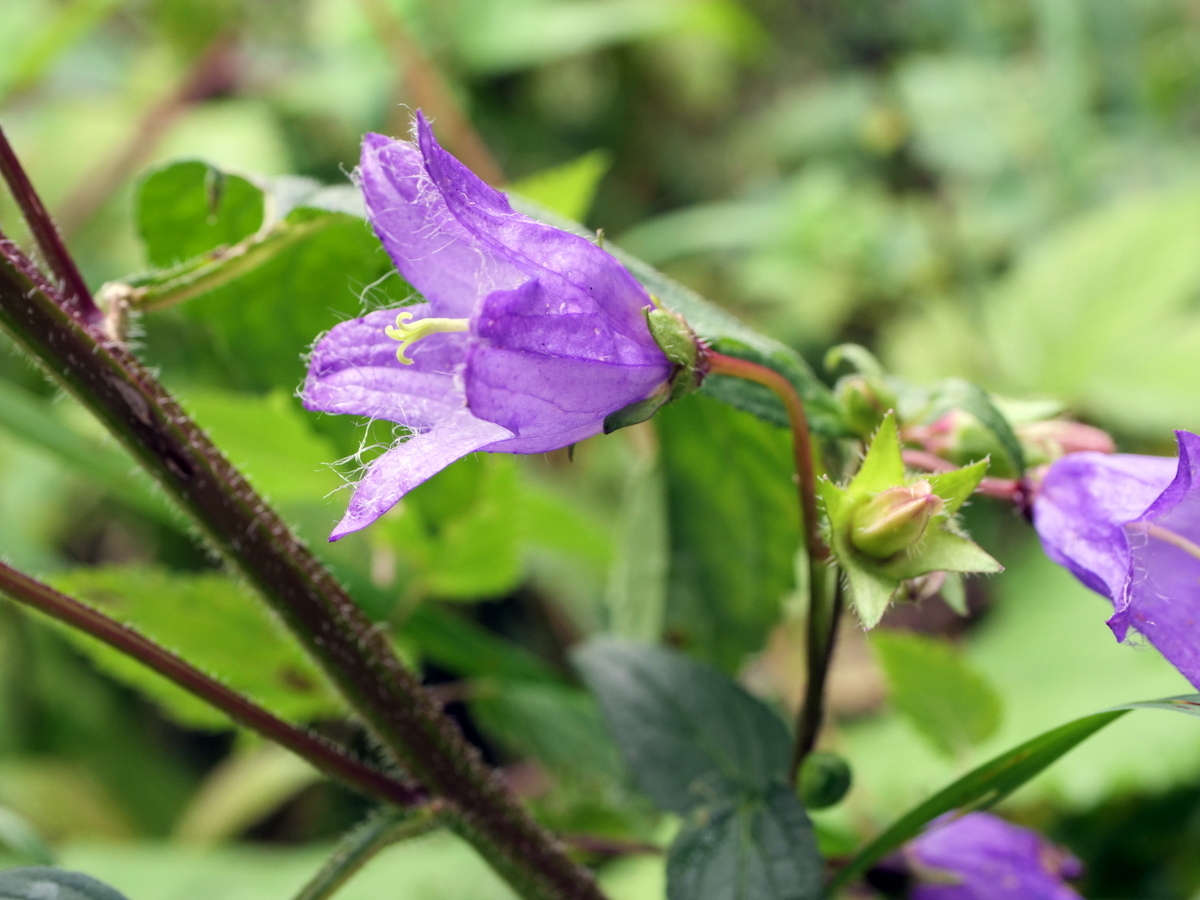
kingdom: Plantae
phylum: Tracheophyta
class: Magnoliopsida
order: Asterales
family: Campanulaceae
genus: Campanula
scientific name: Campanula trachelium
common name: Nettle-leaved bellflower
